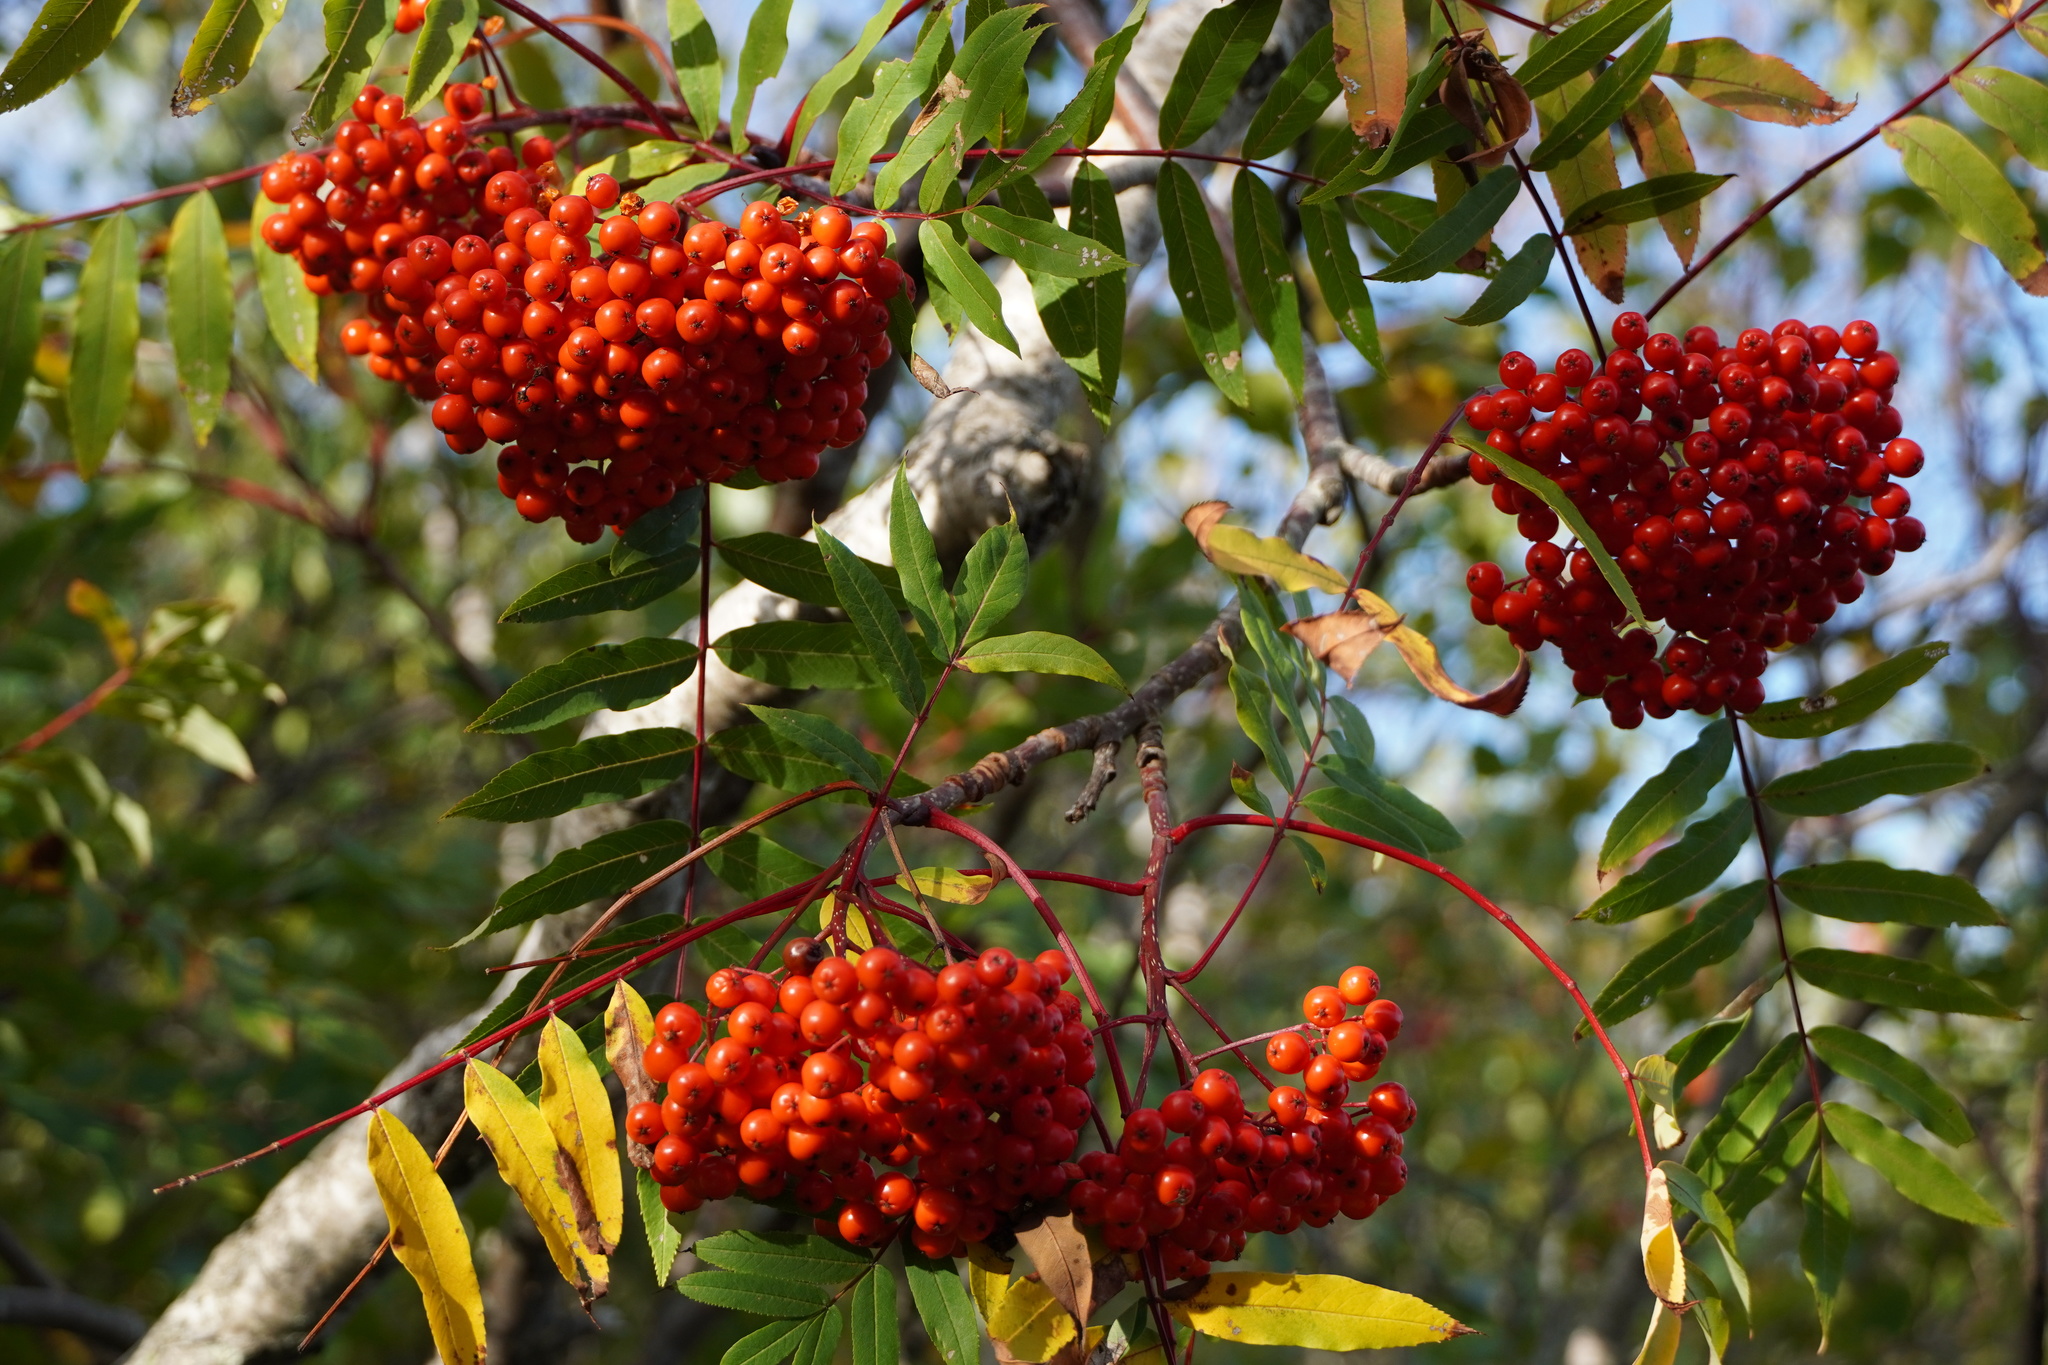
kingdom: Plantae
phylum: Tracheophyta
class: Magnoliopsida
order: Rosales
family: Rosaceae
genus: Sorbus
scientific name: Sorbus americana
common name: American mountain-ash
